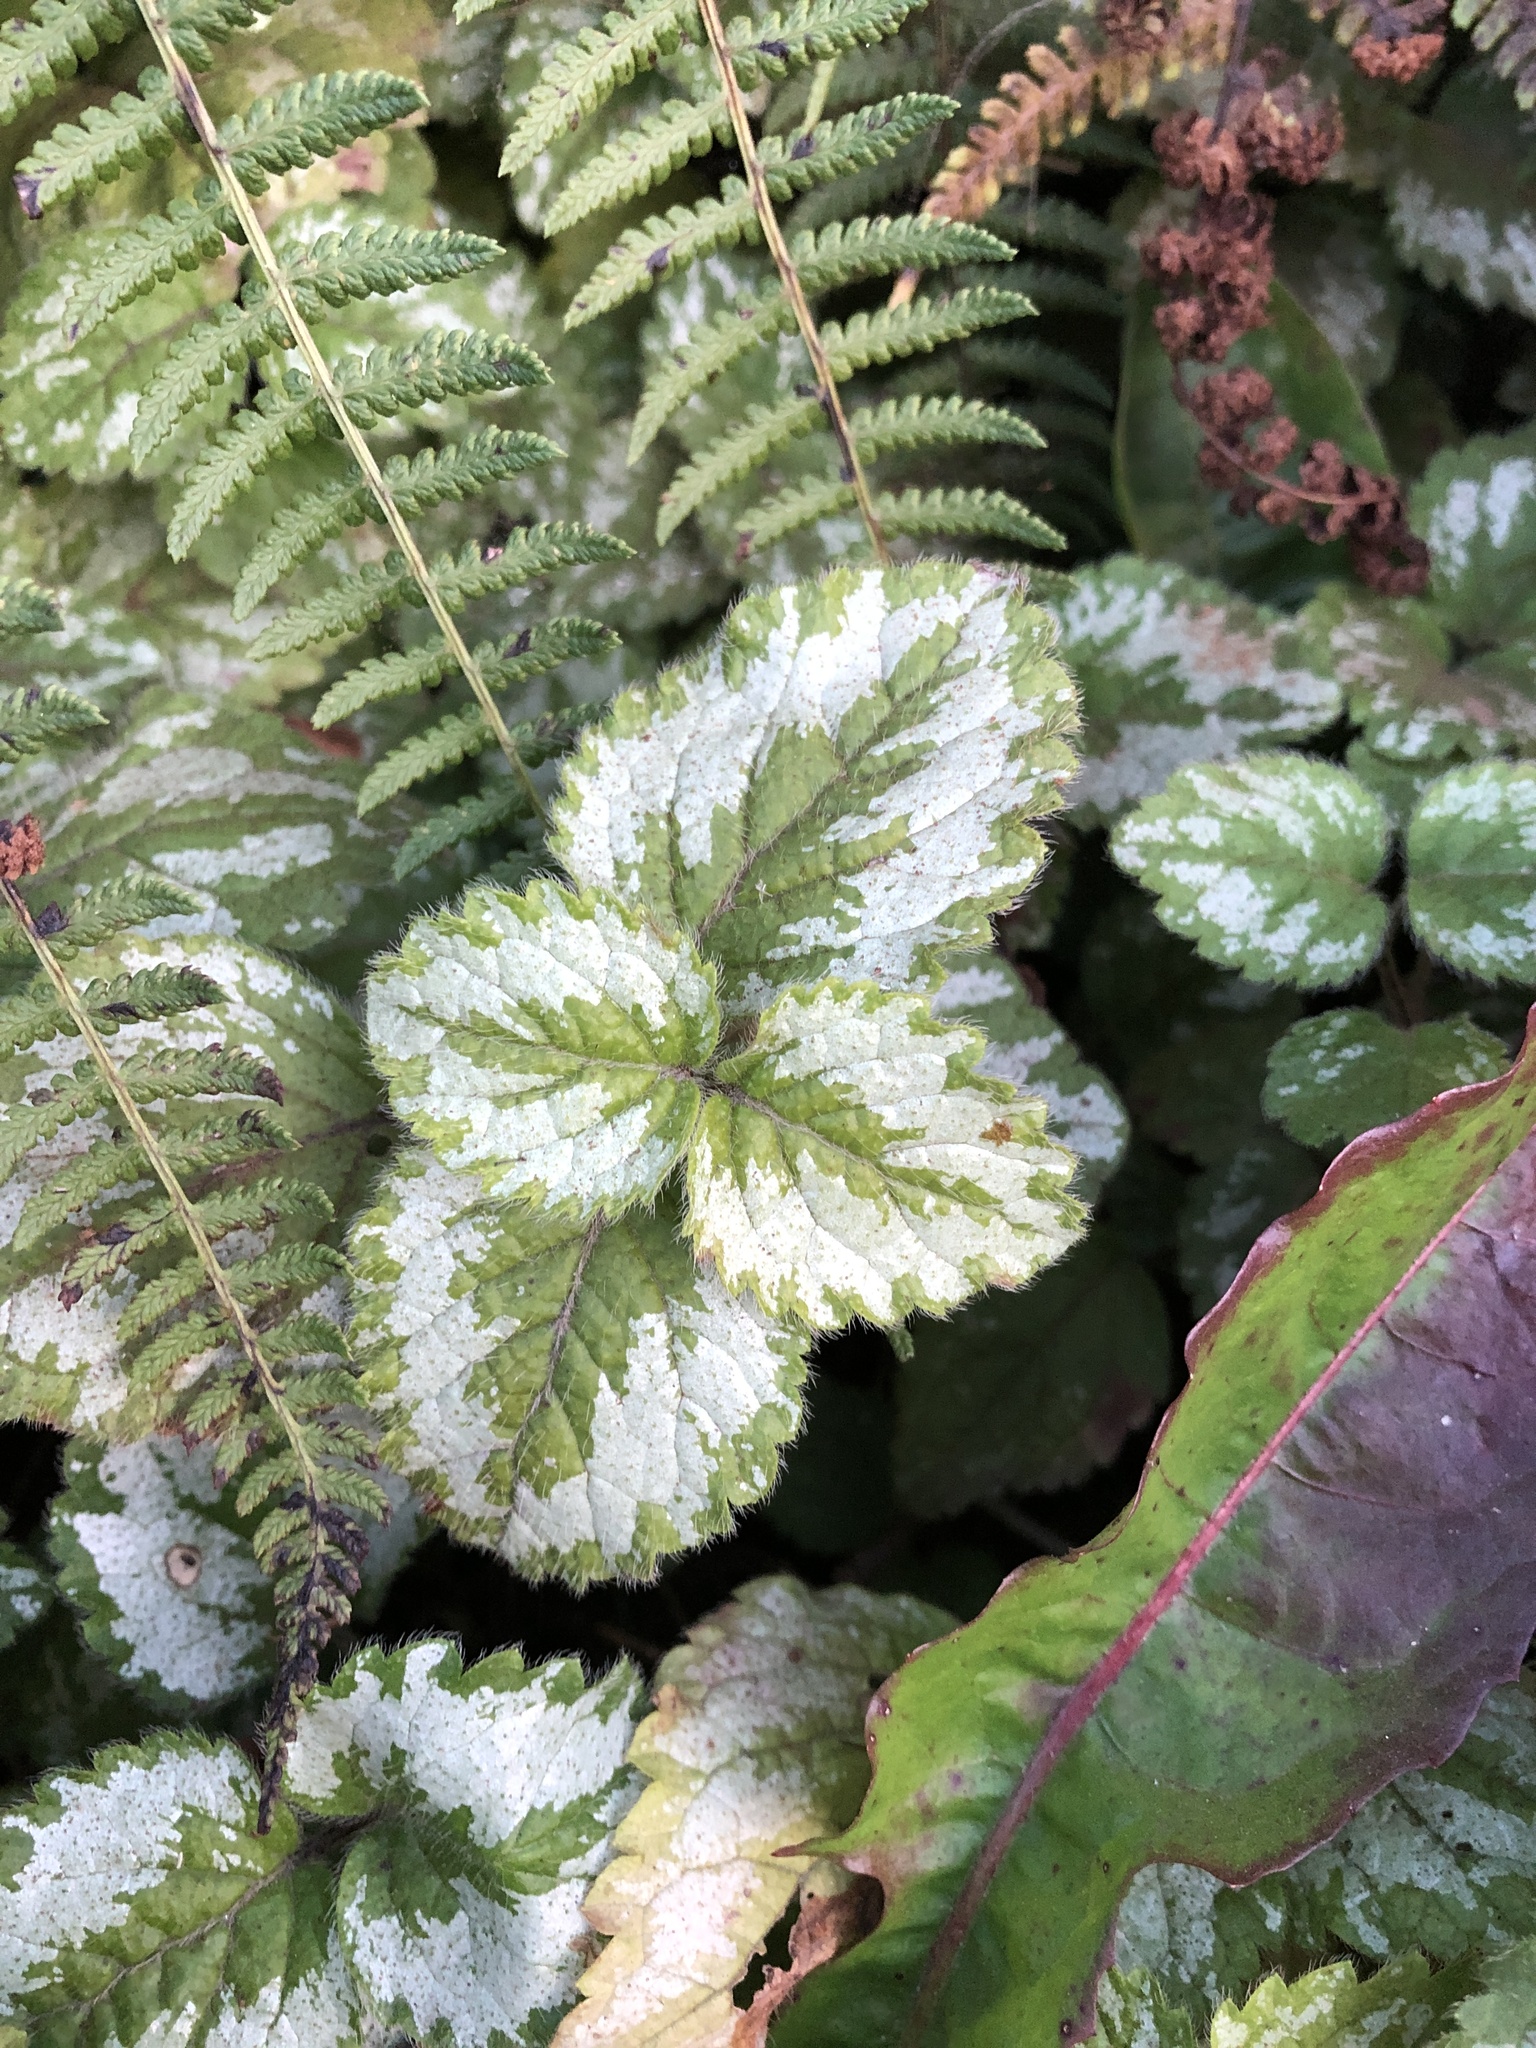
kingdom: Plantae
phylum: Tracheophyta
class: Magnoliopsida
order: Lamiales
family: Lamiaceae
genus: Lamium
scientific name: Lamium galeobdolon
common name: Yellow archangel
